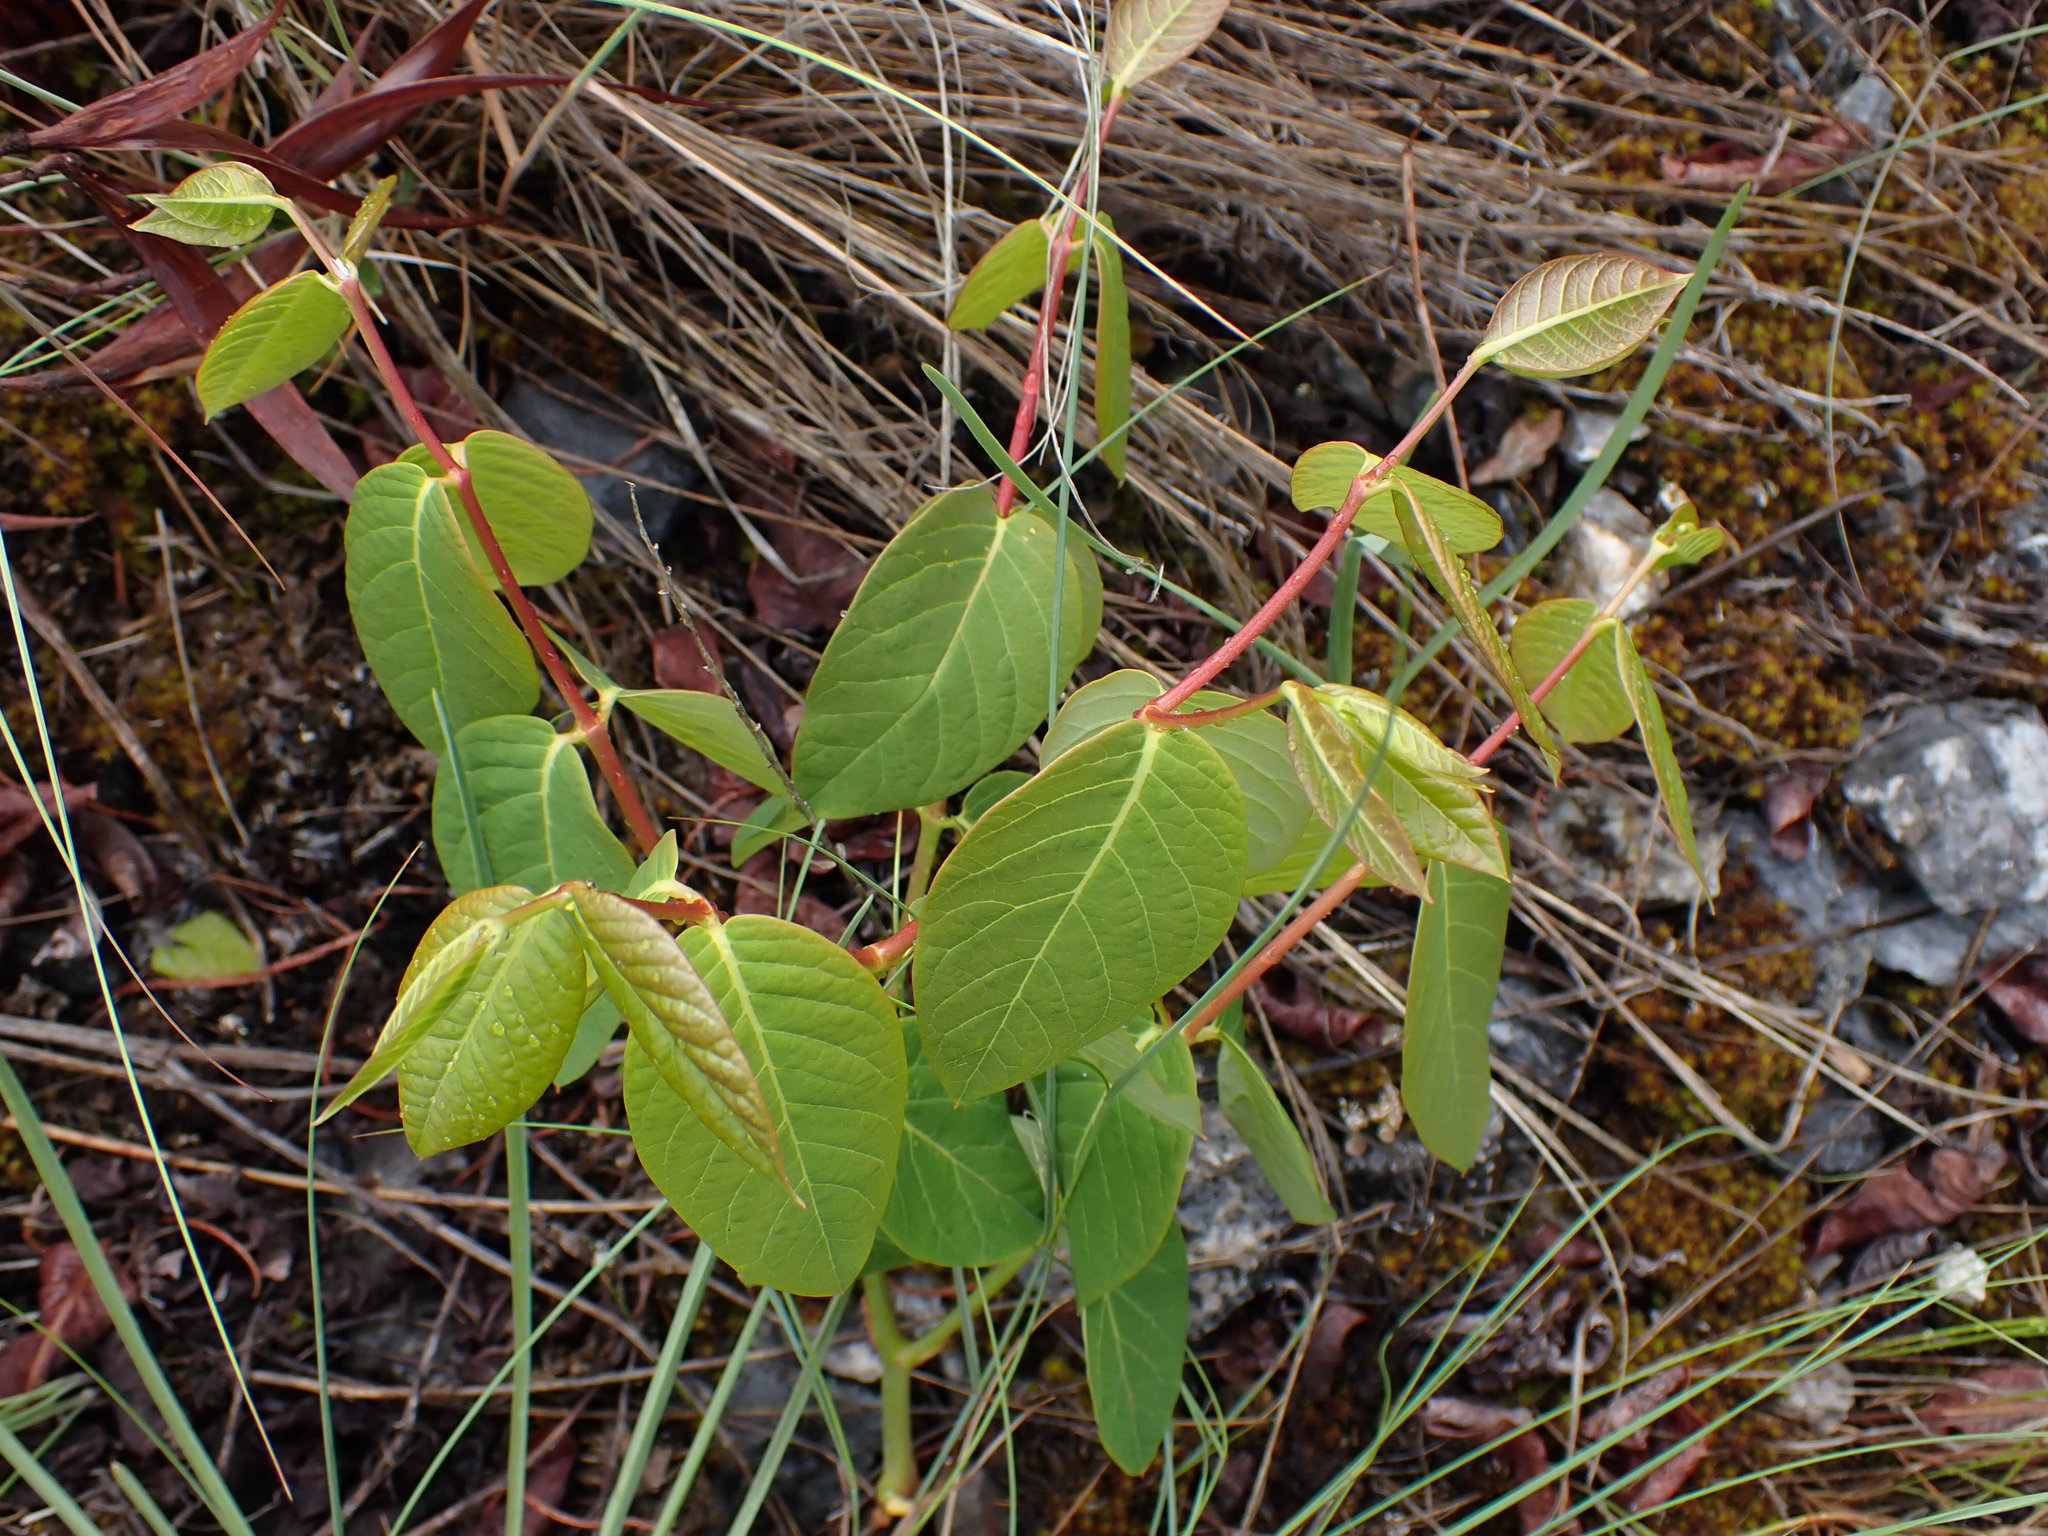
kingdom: Plantae
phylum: Tracheophyta
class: Magnoliopsida
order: Gentianales
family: Apocynaceae
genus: Apocynum
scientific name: Apocynum androsaemifolium
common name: Spreading dogbane
